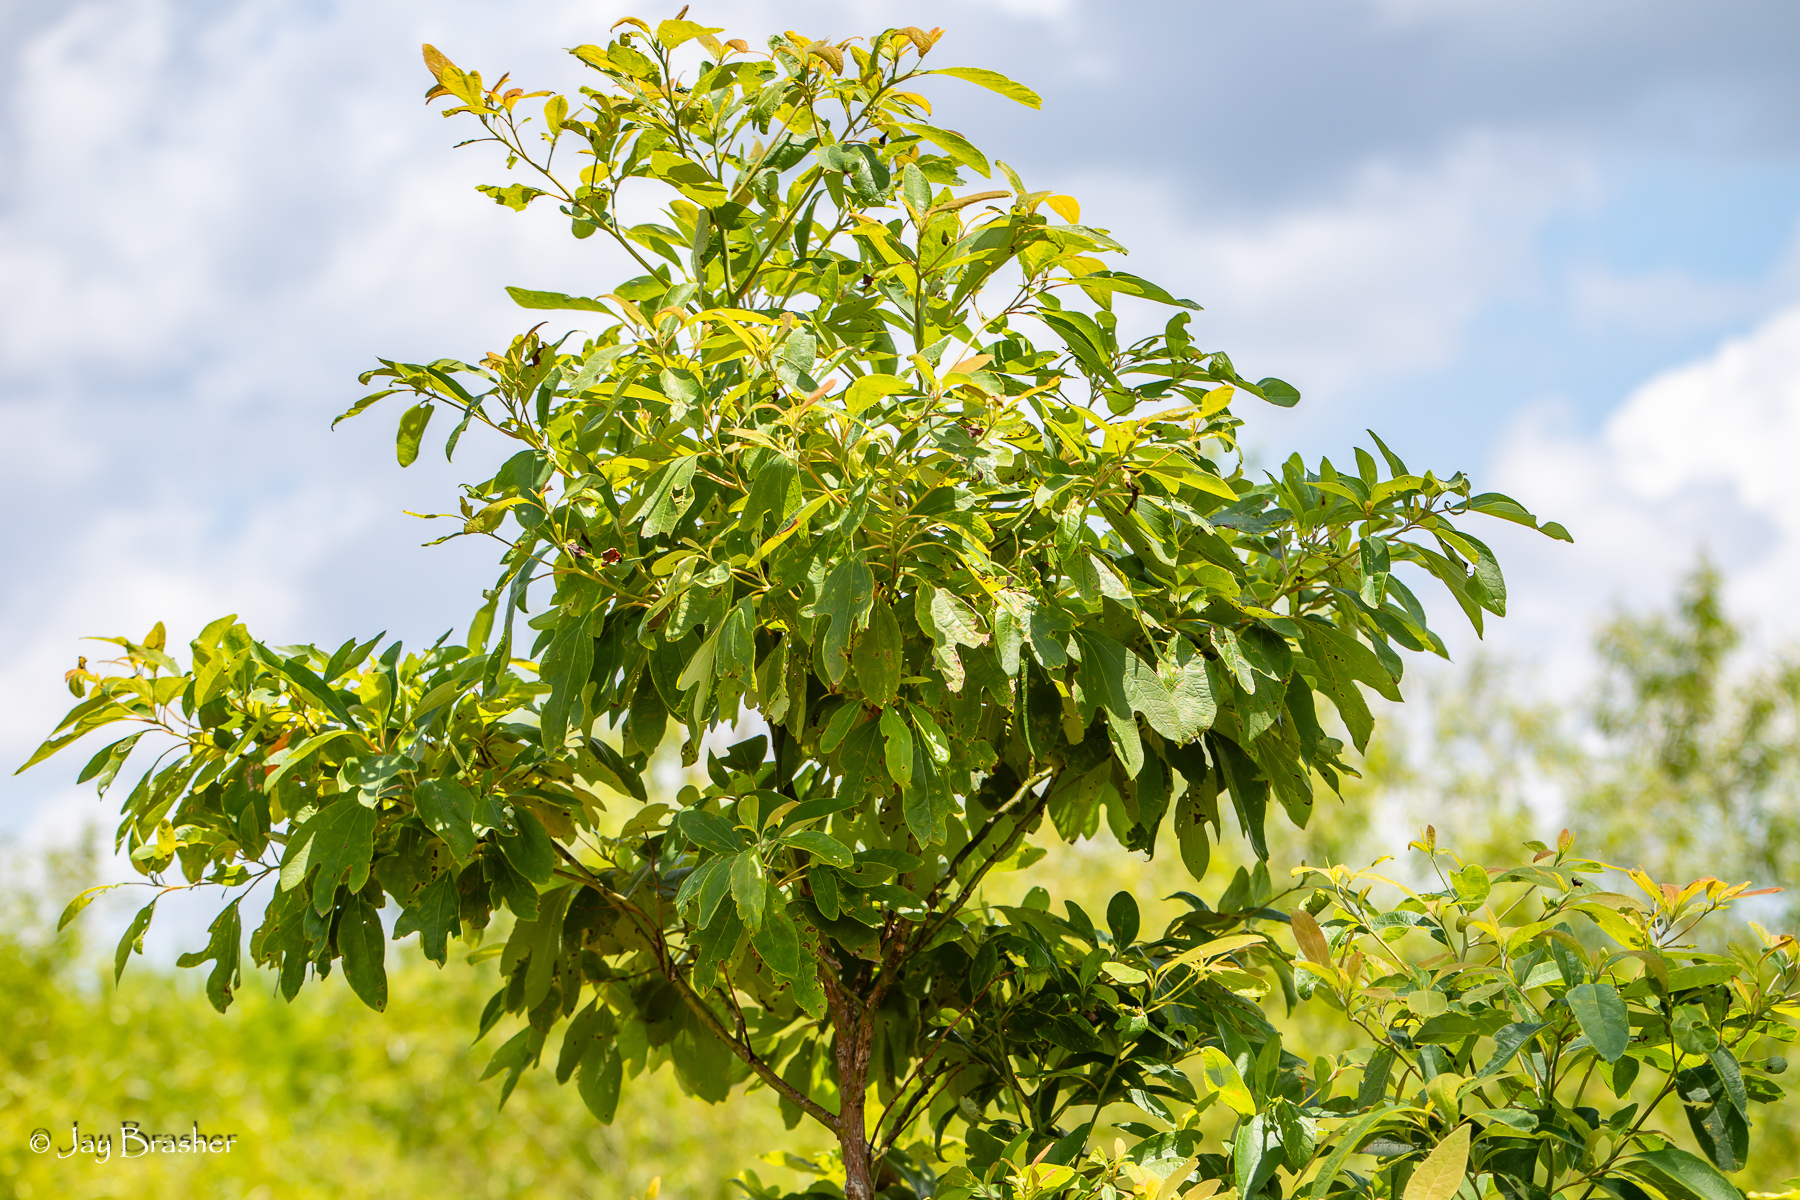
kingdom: Plantae
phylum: Tracheophyta
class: Magnoliopsida
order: Laurales
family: Lauraceae
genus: Sassafras
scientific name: Sassafras albidum
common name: Sassafras
